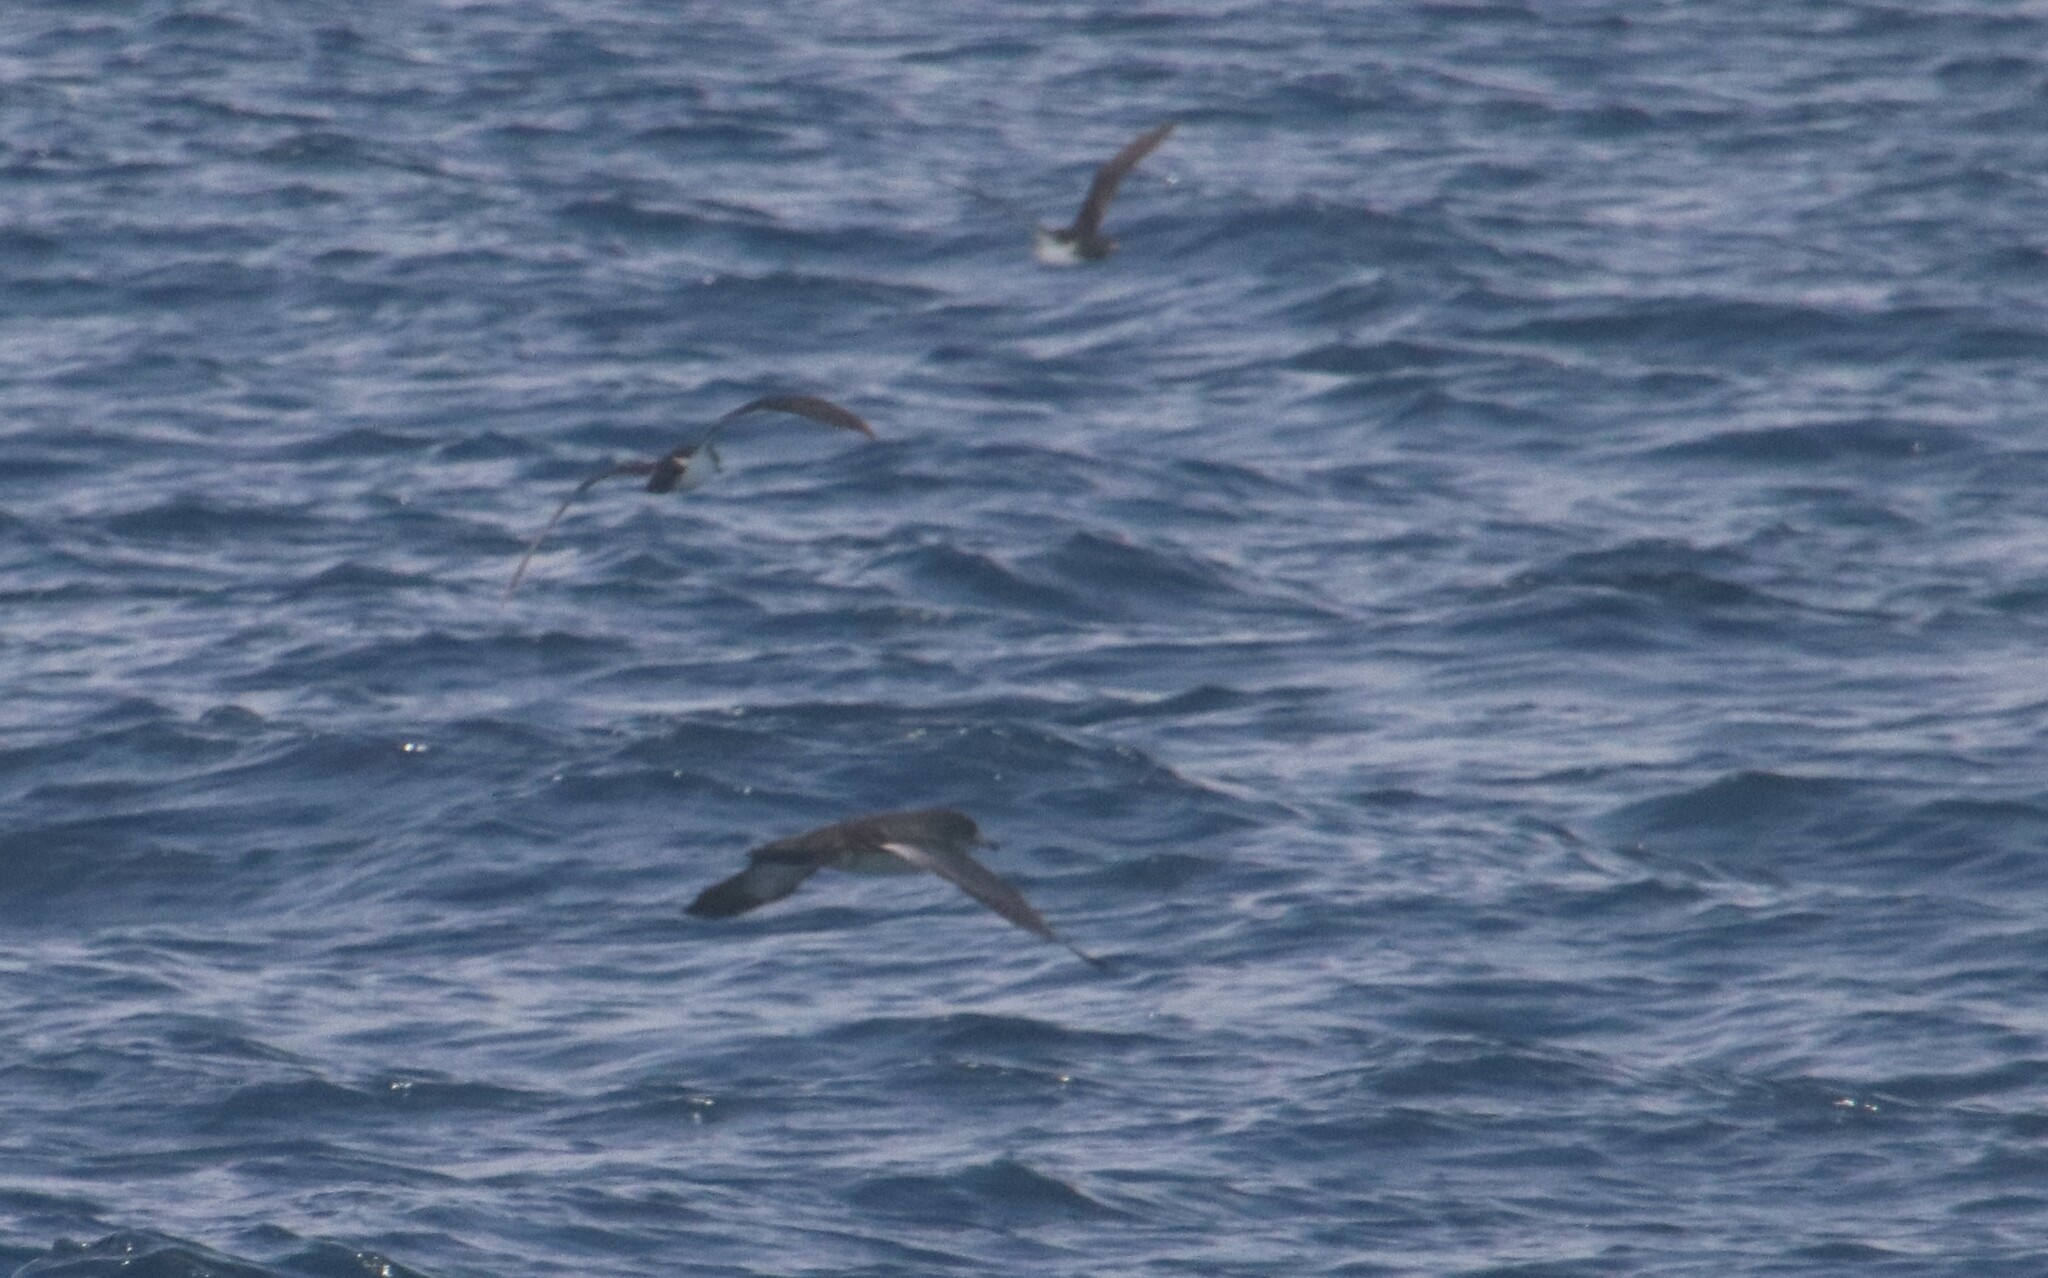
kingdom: Animalia
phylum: Chordata
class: Aves
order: Procellariiformes
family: Procellariidae
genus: Puffinus
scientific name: Puffinus opisthomelas
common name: Black-vented shearwater
